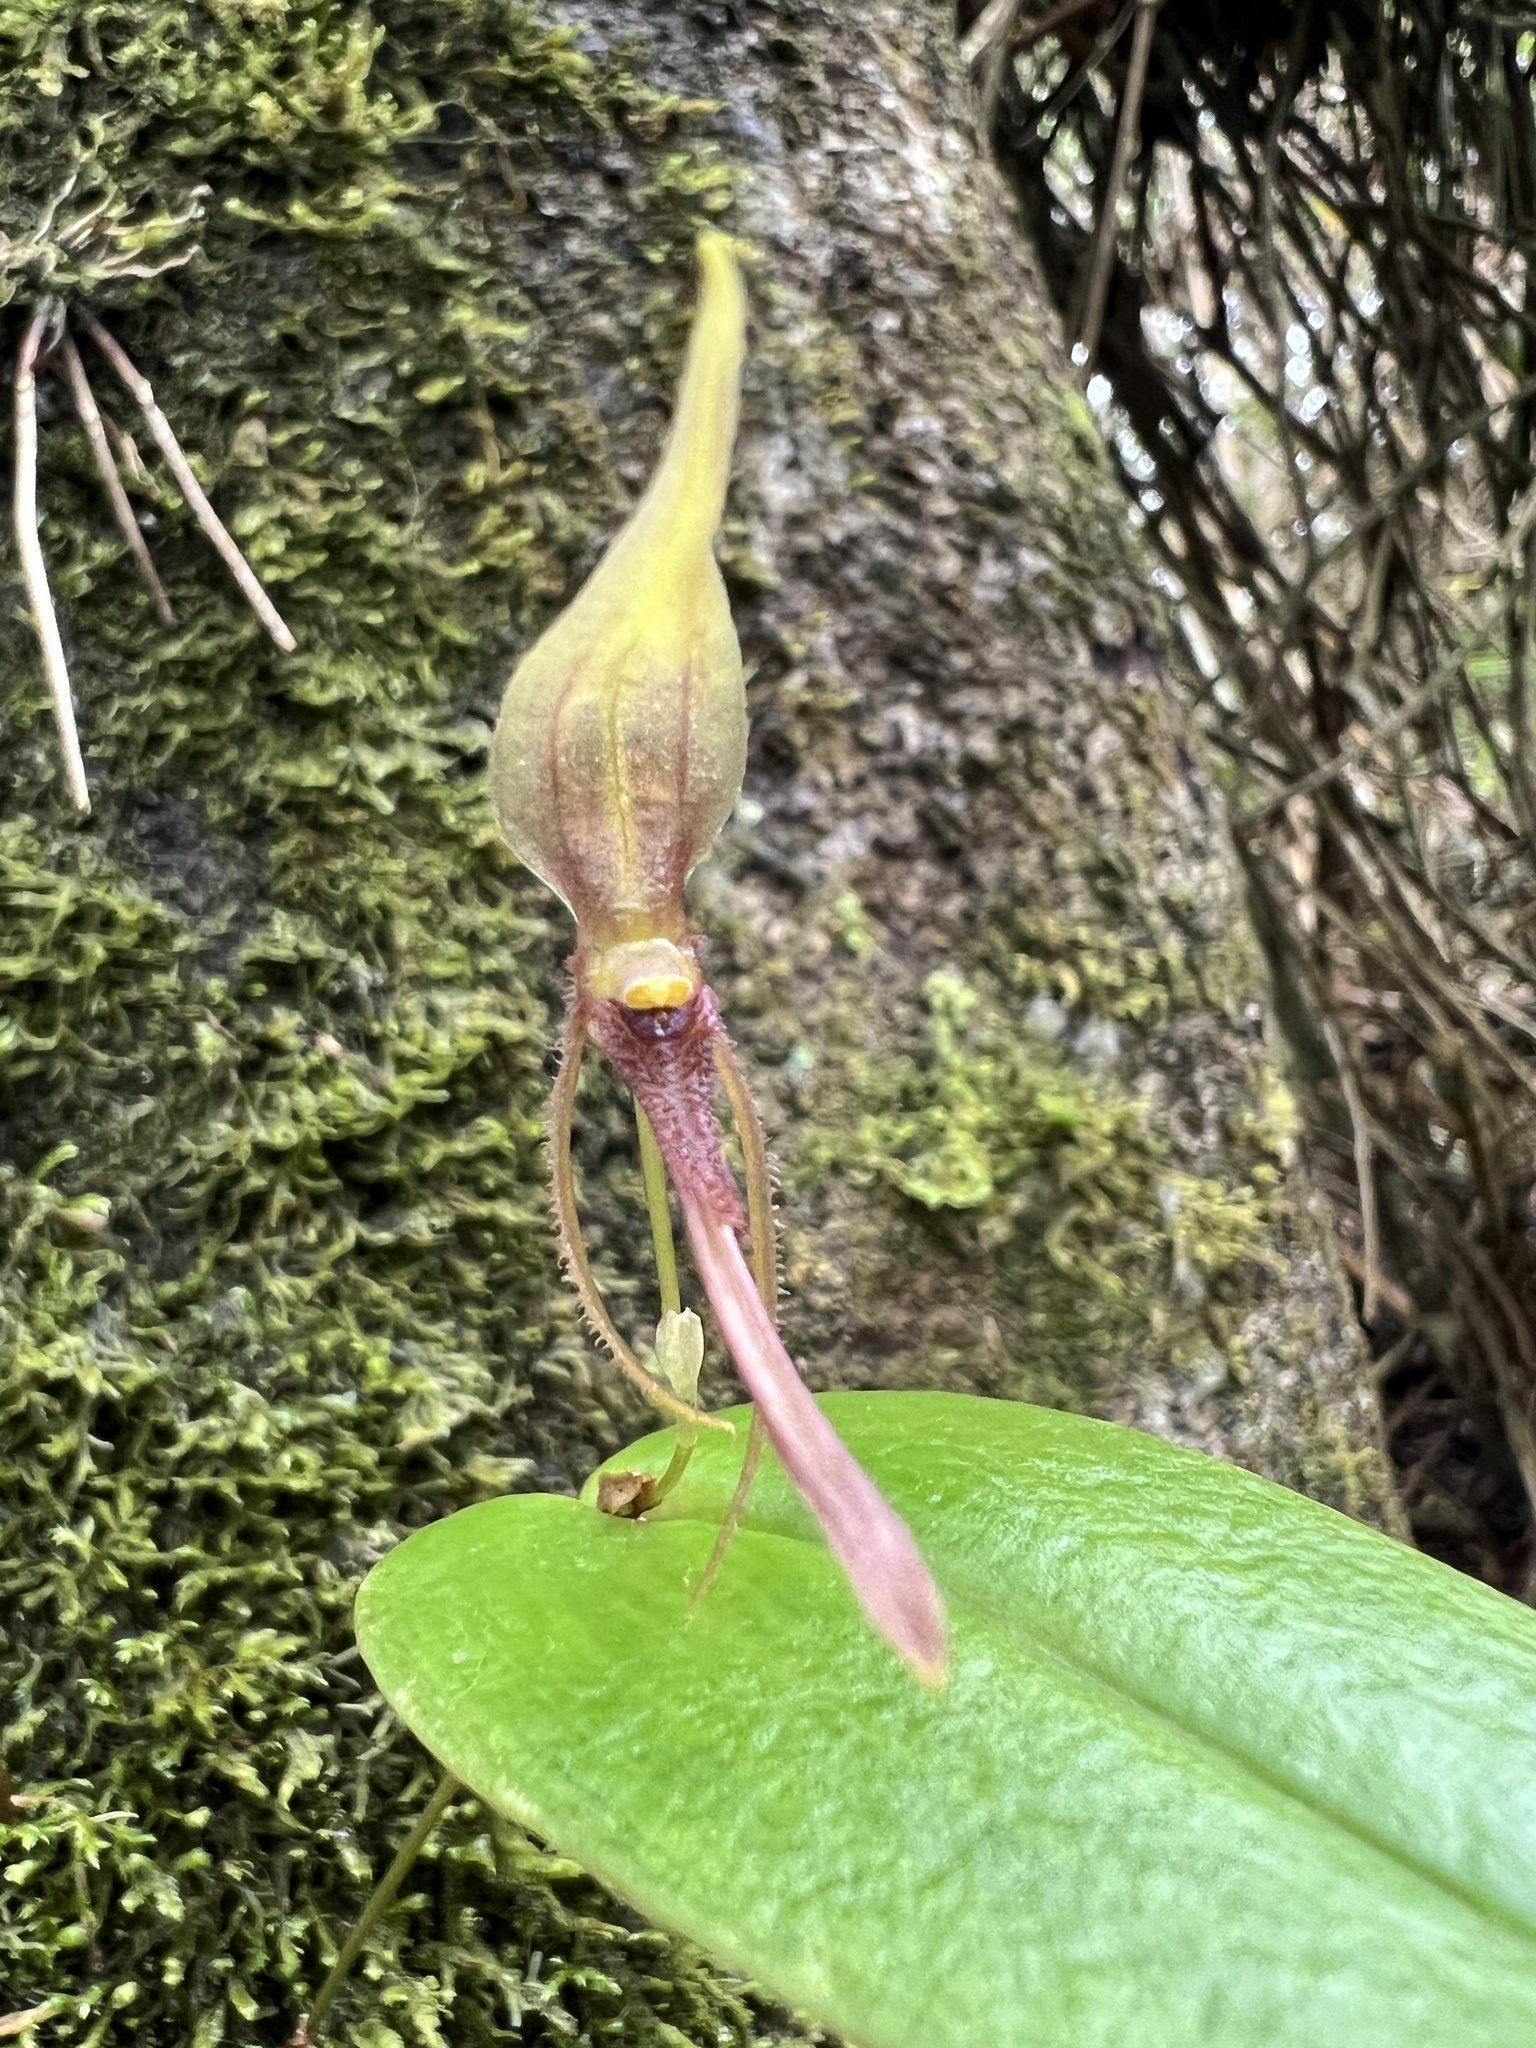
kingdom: Plantae
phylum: Tracheophyta
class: Liliopsida
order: Asparagales
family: Orchidaceae
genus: Pleurothallis
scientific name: Pleurothallis killipii
